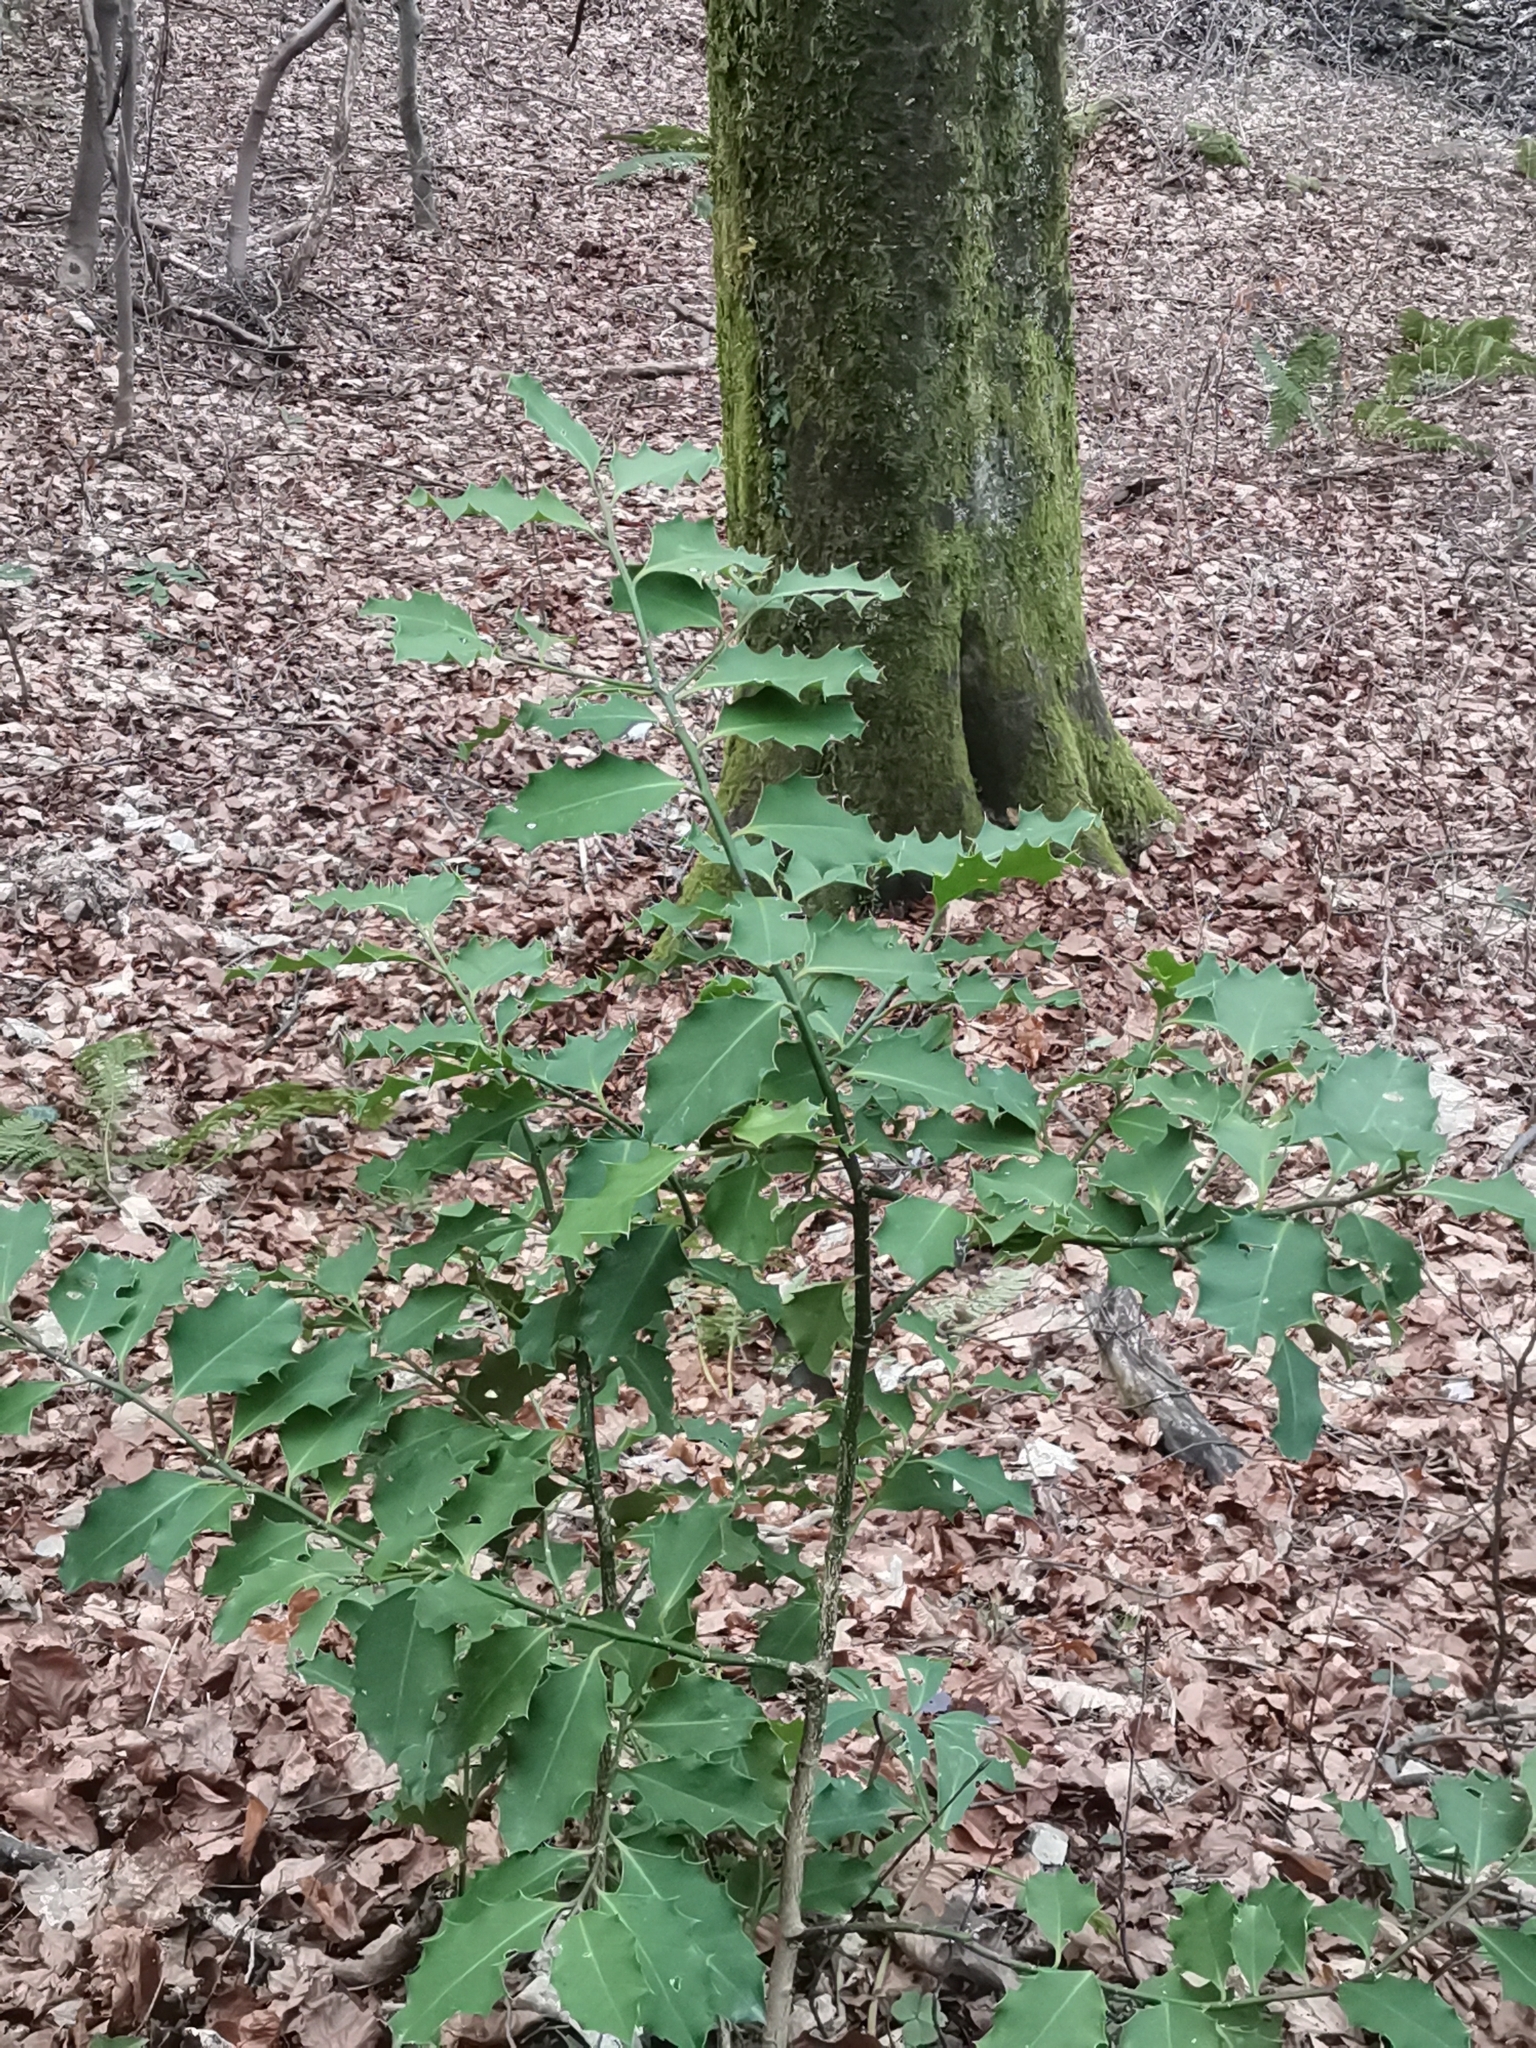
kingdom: Plantae
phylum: Tracheophyta
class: Magnoliopsida
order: Aquifoliales
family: Aquifoliaceae
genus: Ilex
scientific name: Ilex aquifolium
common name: English holly
